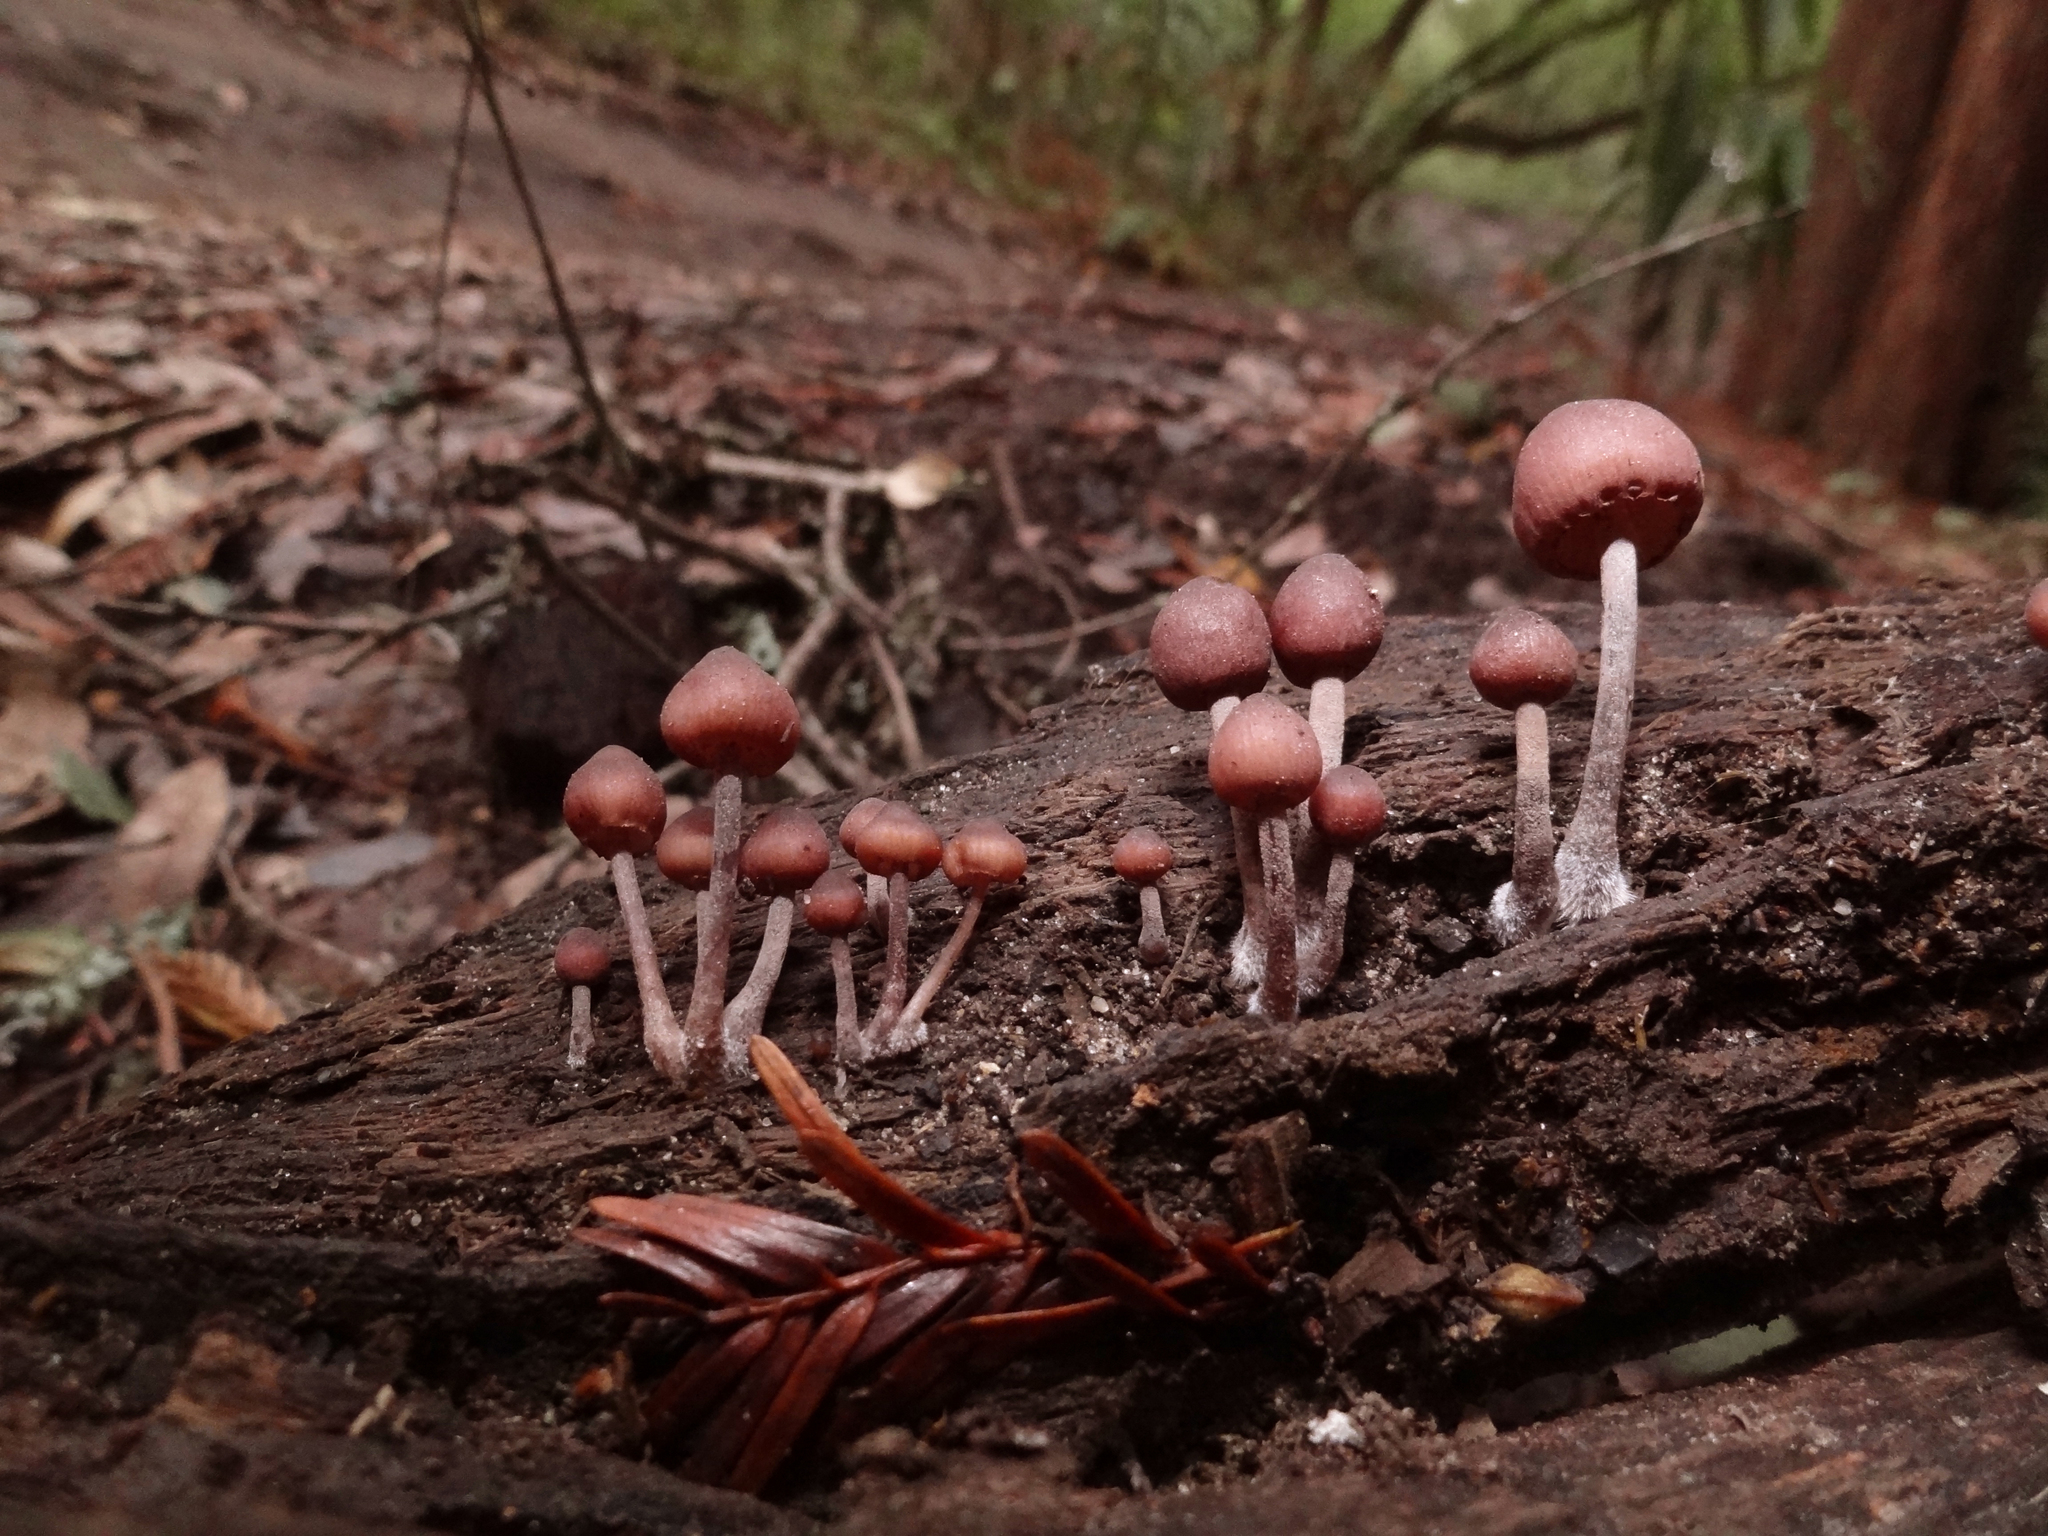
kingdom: Fungi
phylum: Basidiomycota
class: Agaricomycetes
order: Agaricales
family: Mycenaceae
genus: Mycena
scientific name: Mycena haematopus
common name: Burgundydrop bonnet
